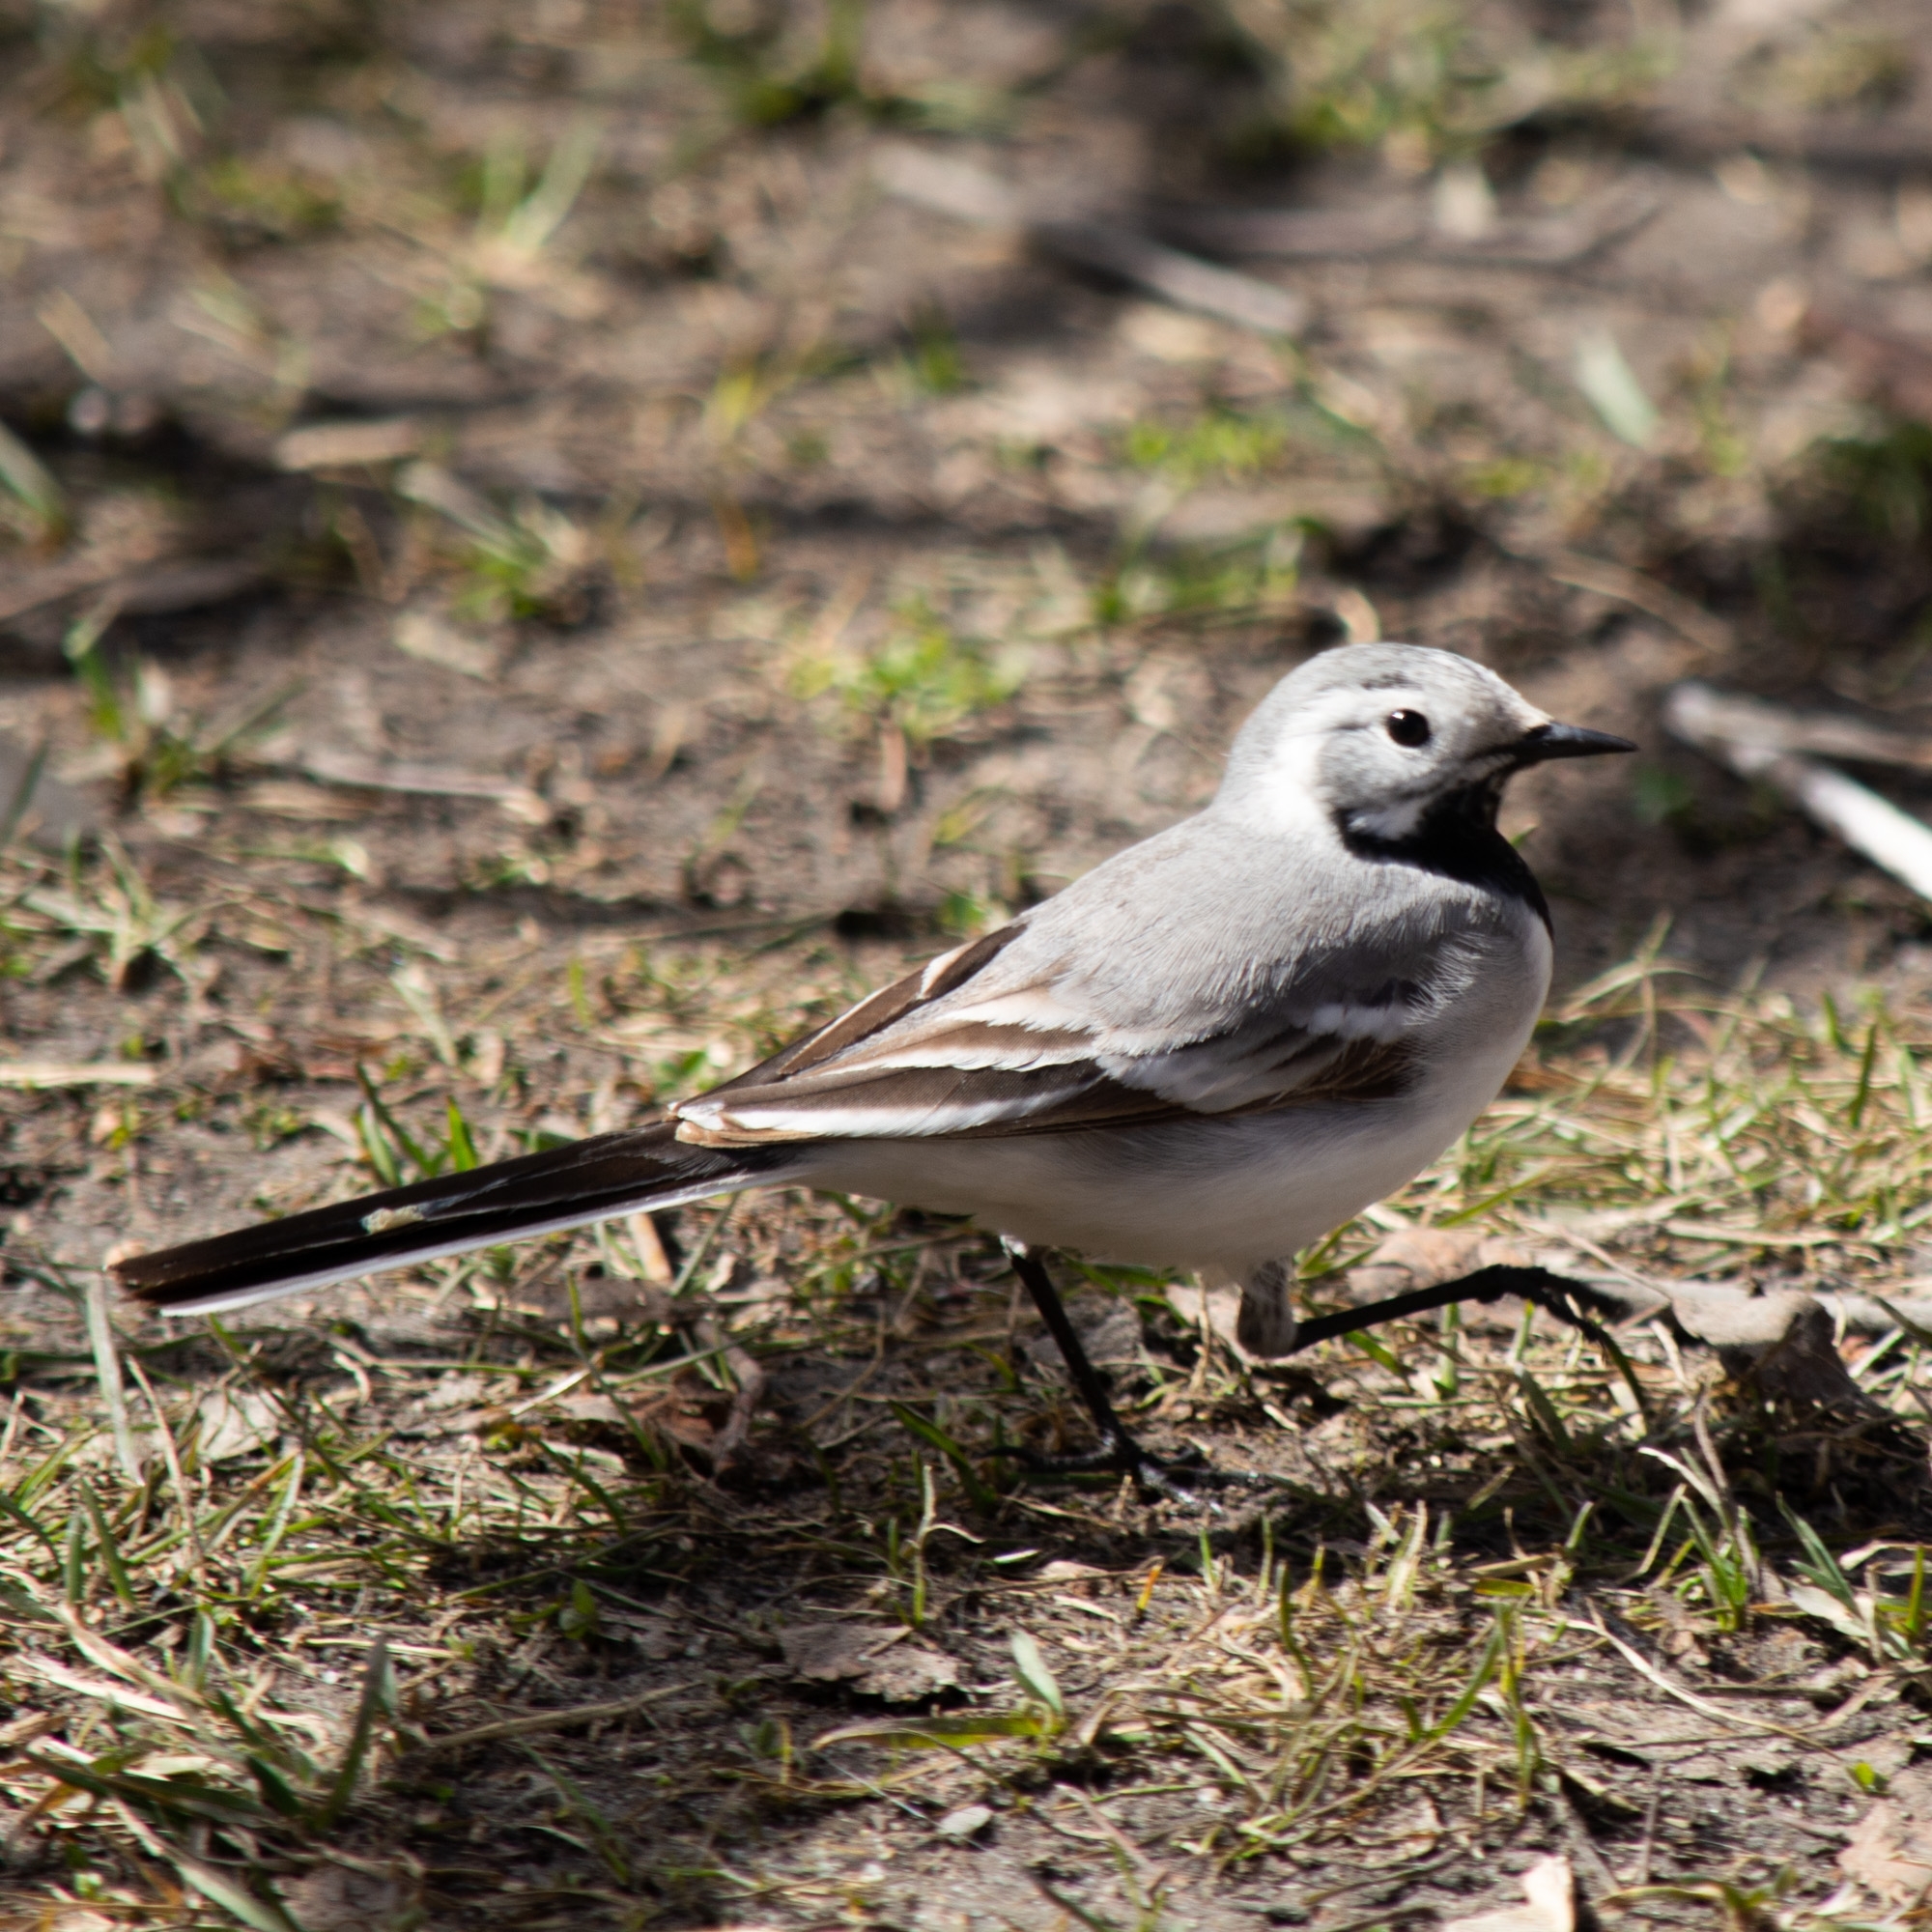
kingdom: Animalia
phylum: Chordata
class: Aves
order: Passeriformes
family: Motacillidae
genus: Motacilla
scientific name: Motacilla alba
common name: White wagtail
